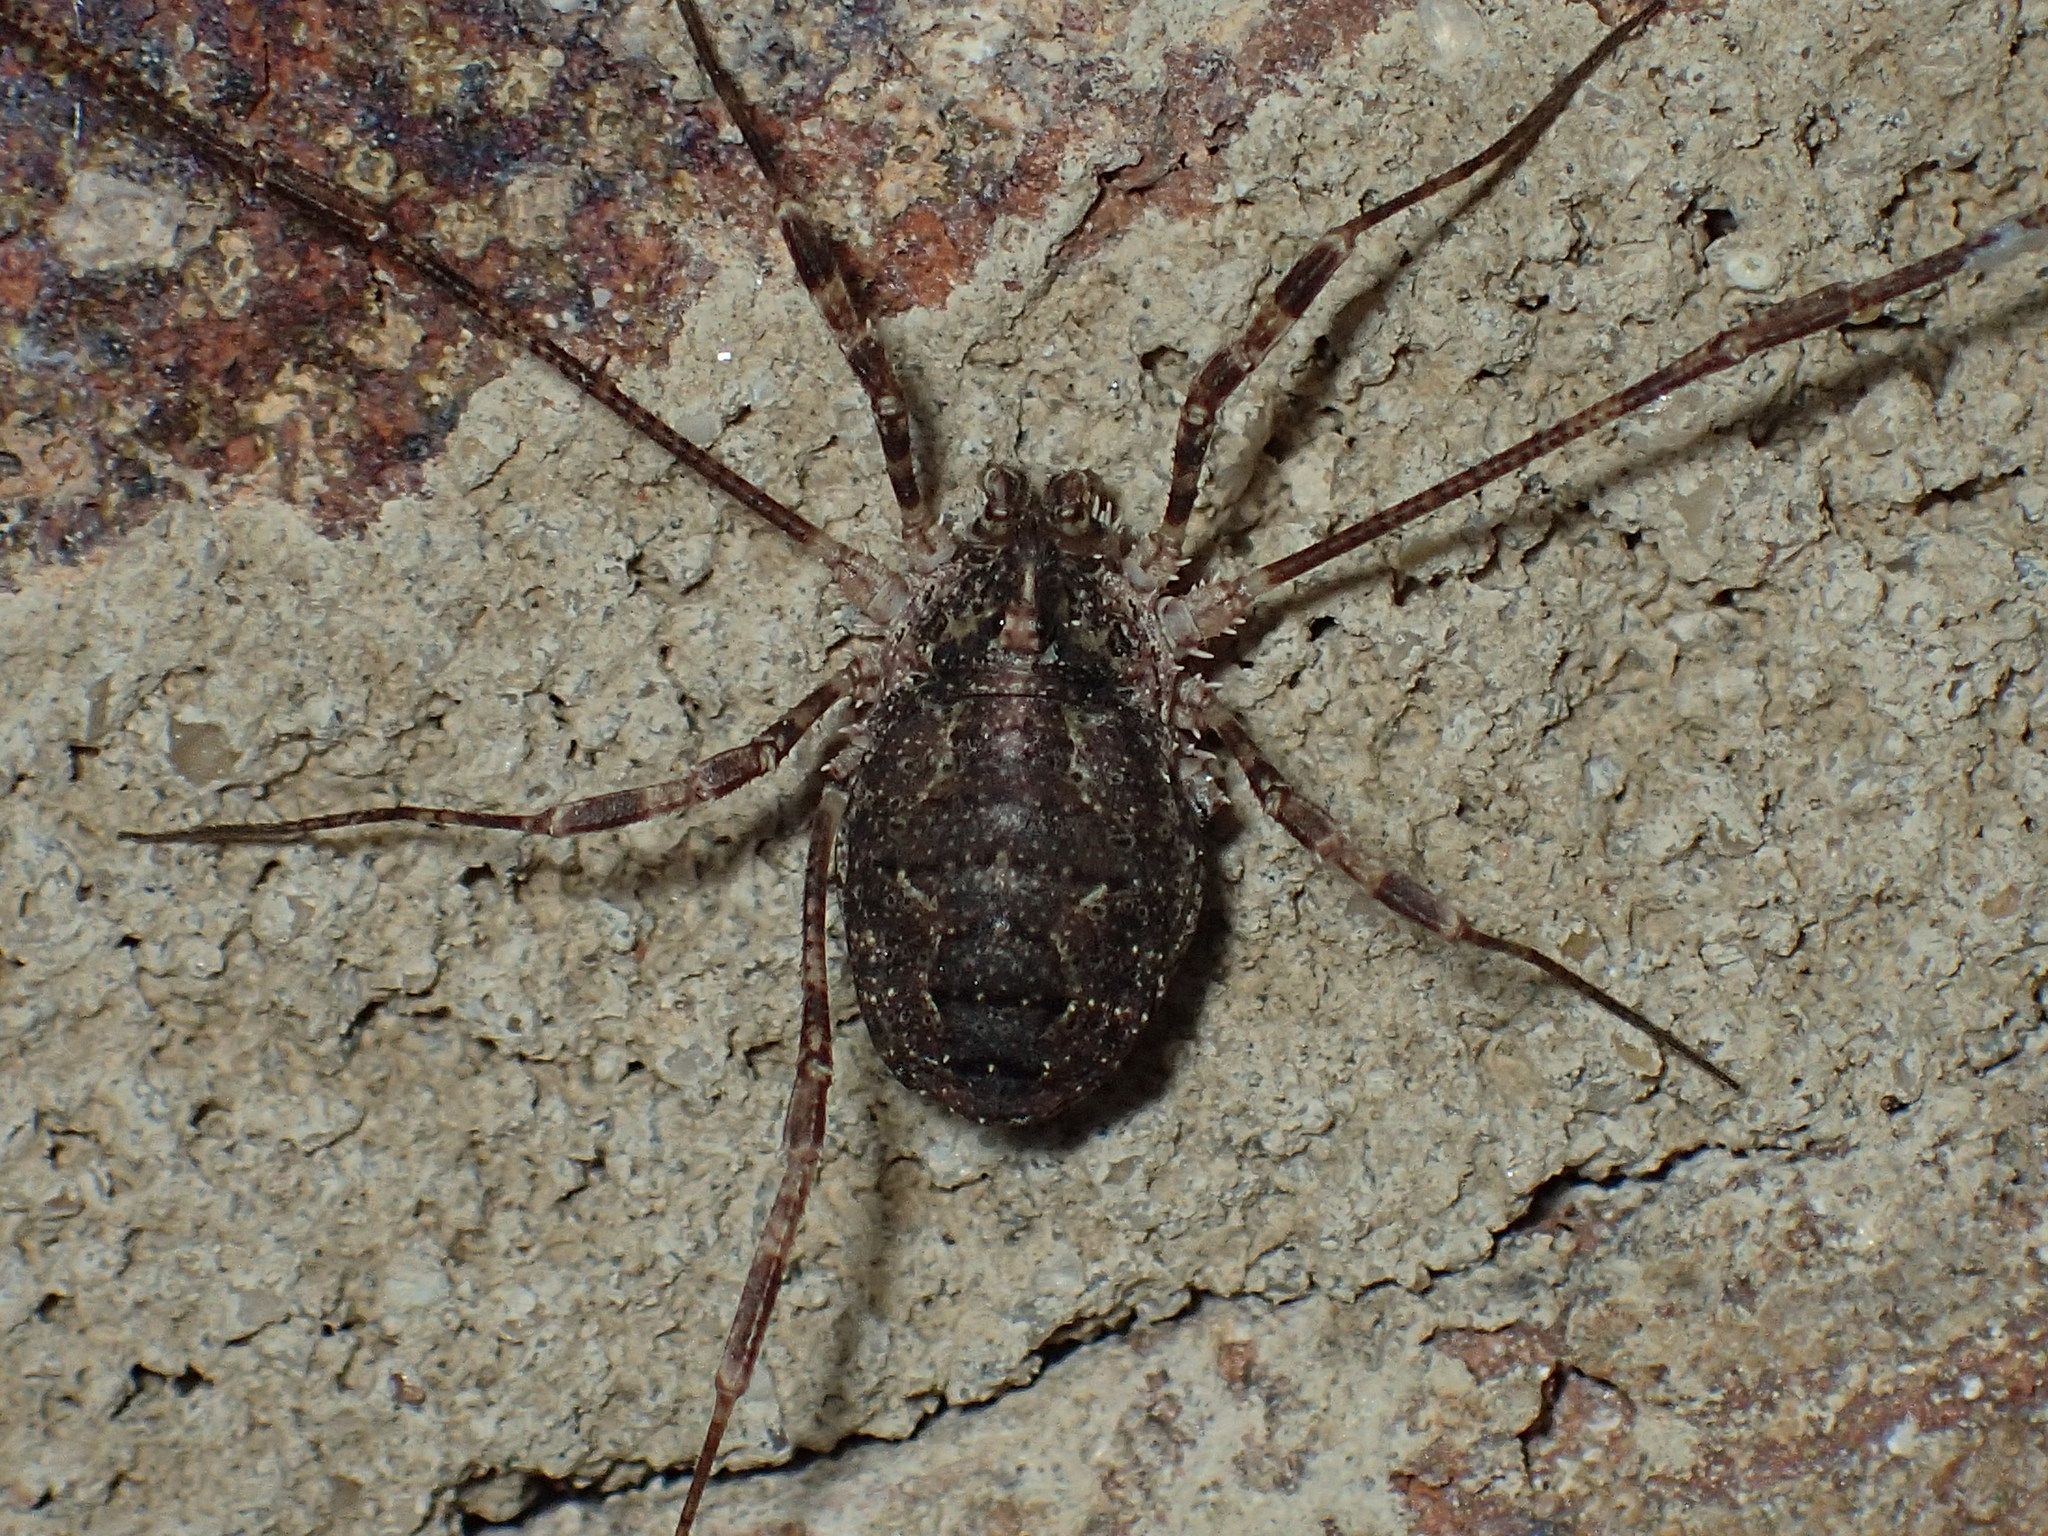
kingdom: Animalia
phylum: Arthropoda
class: Arachnida
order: Opiliones
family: Phalangiidae
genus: Odiellus
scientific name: Odiellus pictus
